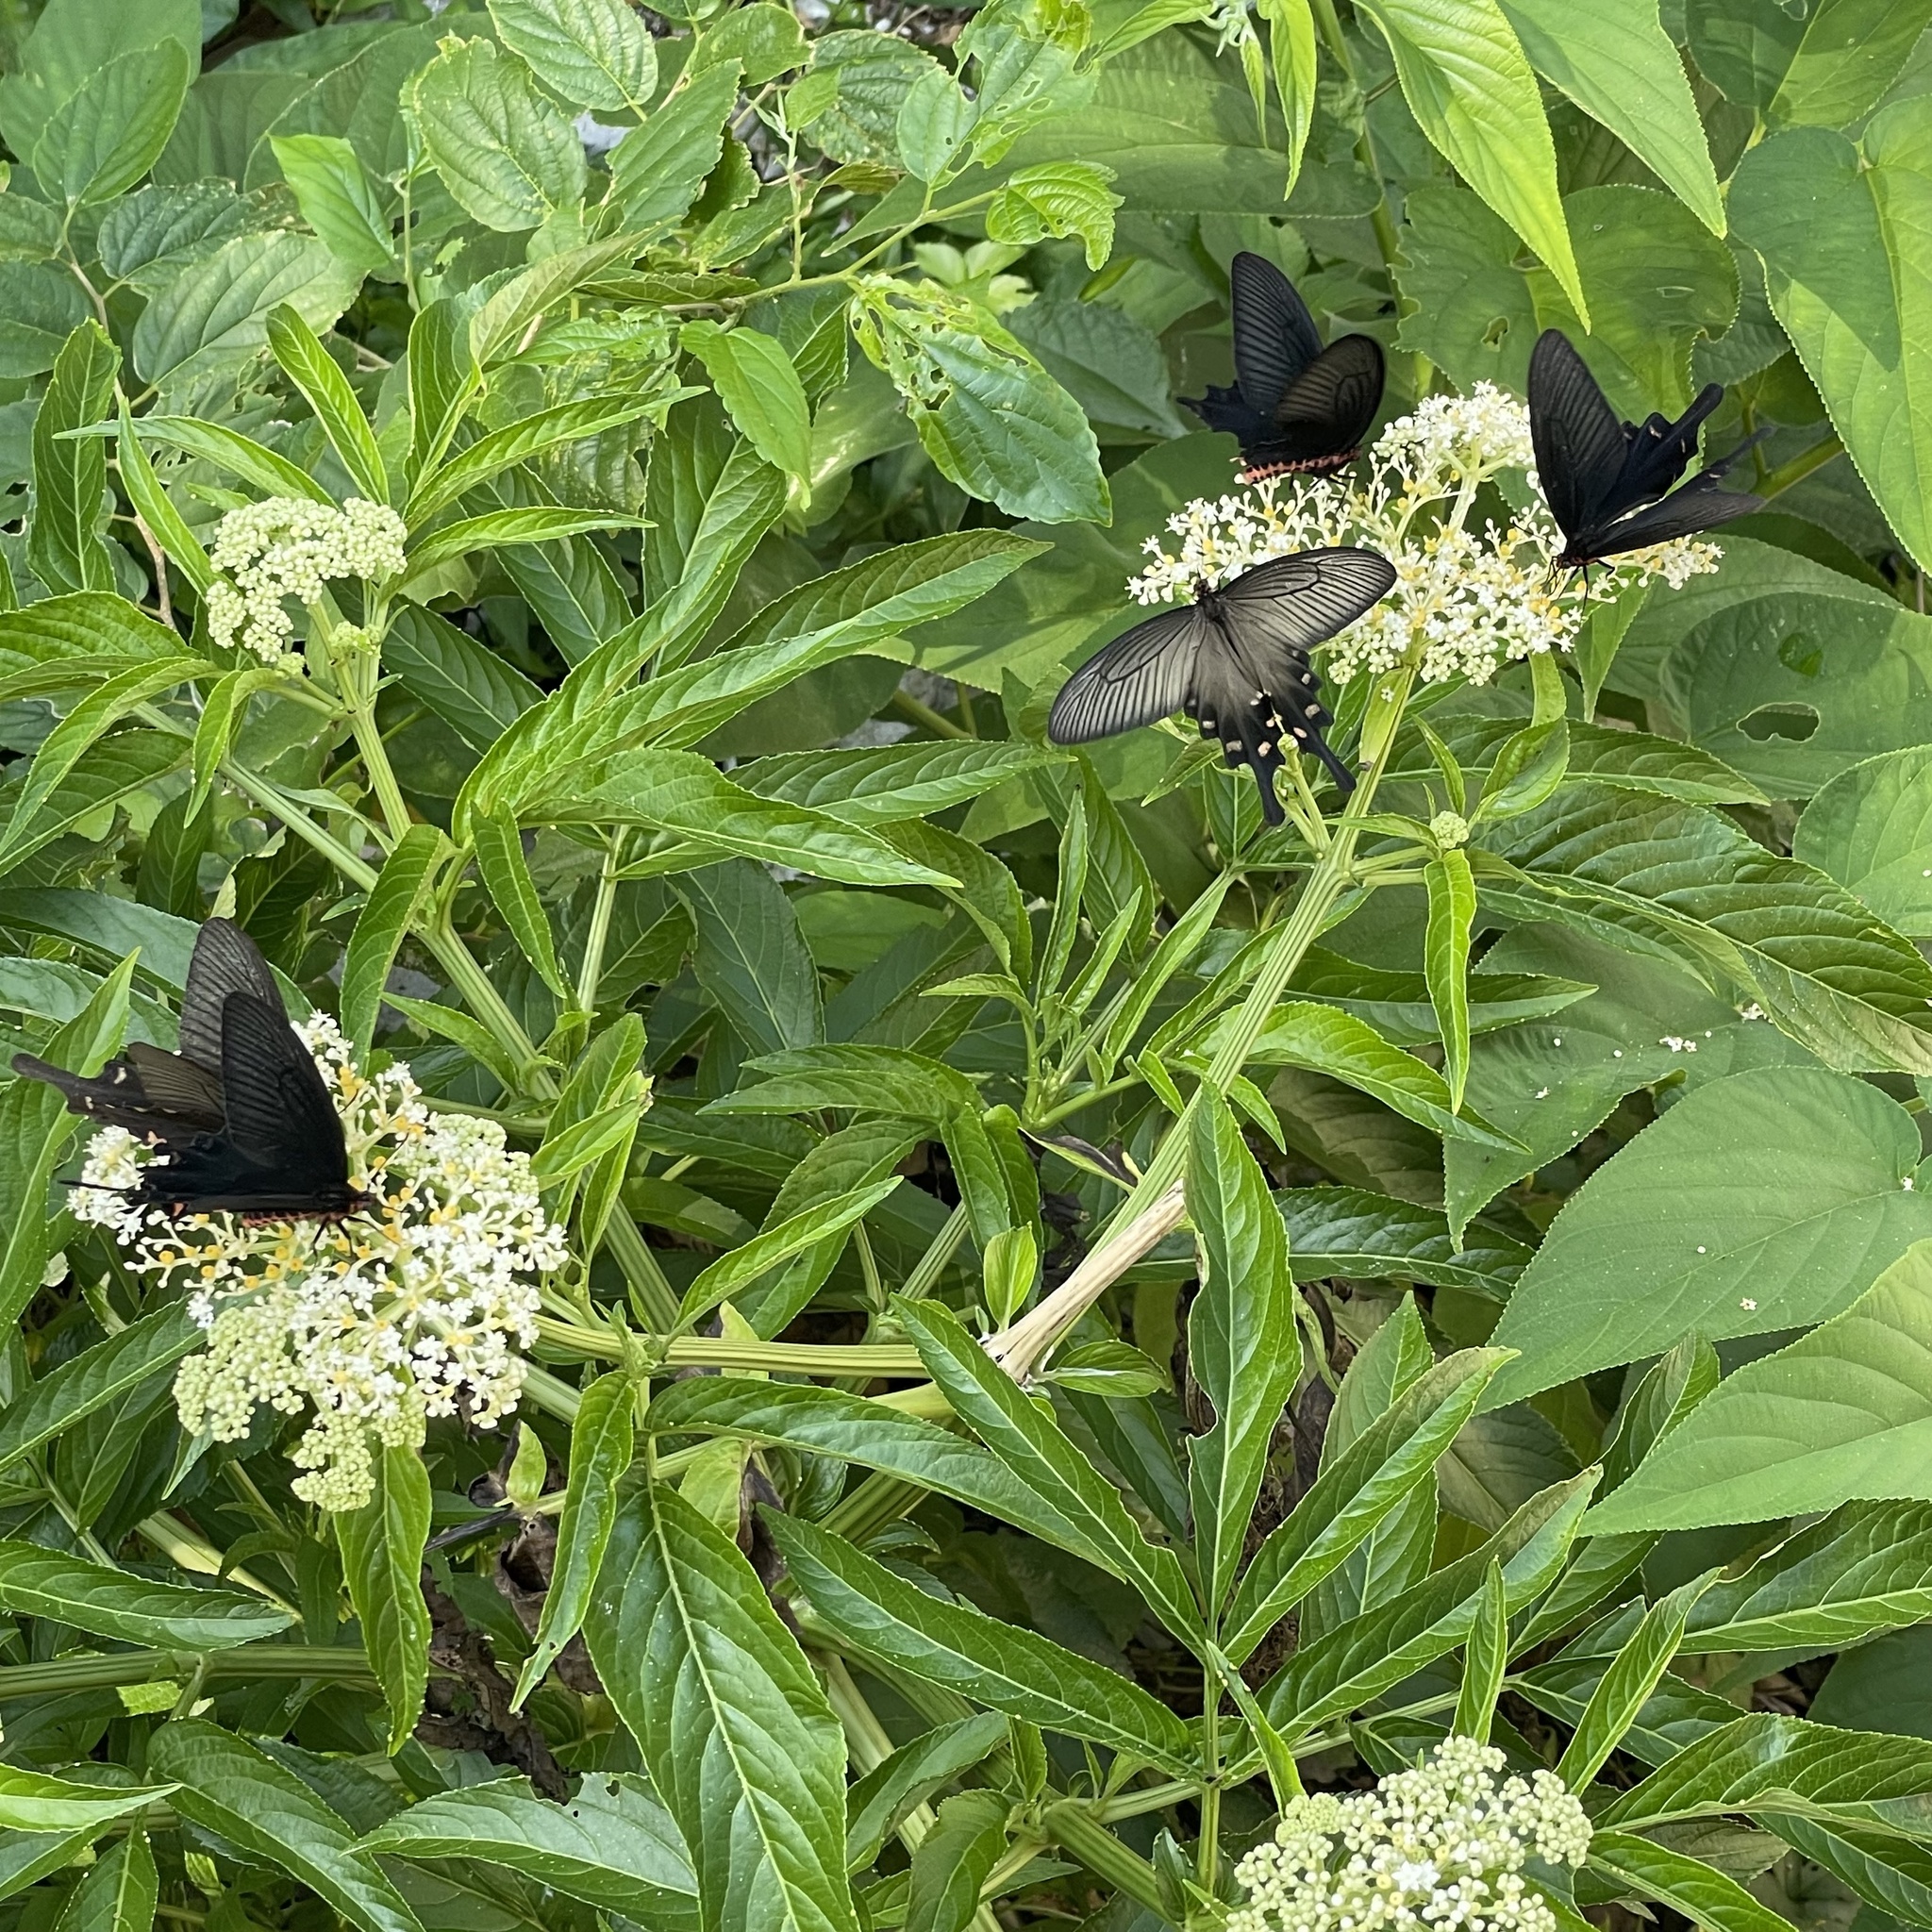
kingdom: Animalia
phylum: Arthropoda
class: Insecta
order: Lepidoptera
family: Papilionidae
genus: Byasa
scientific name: Byasa alcinous
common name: Chinese windmill
